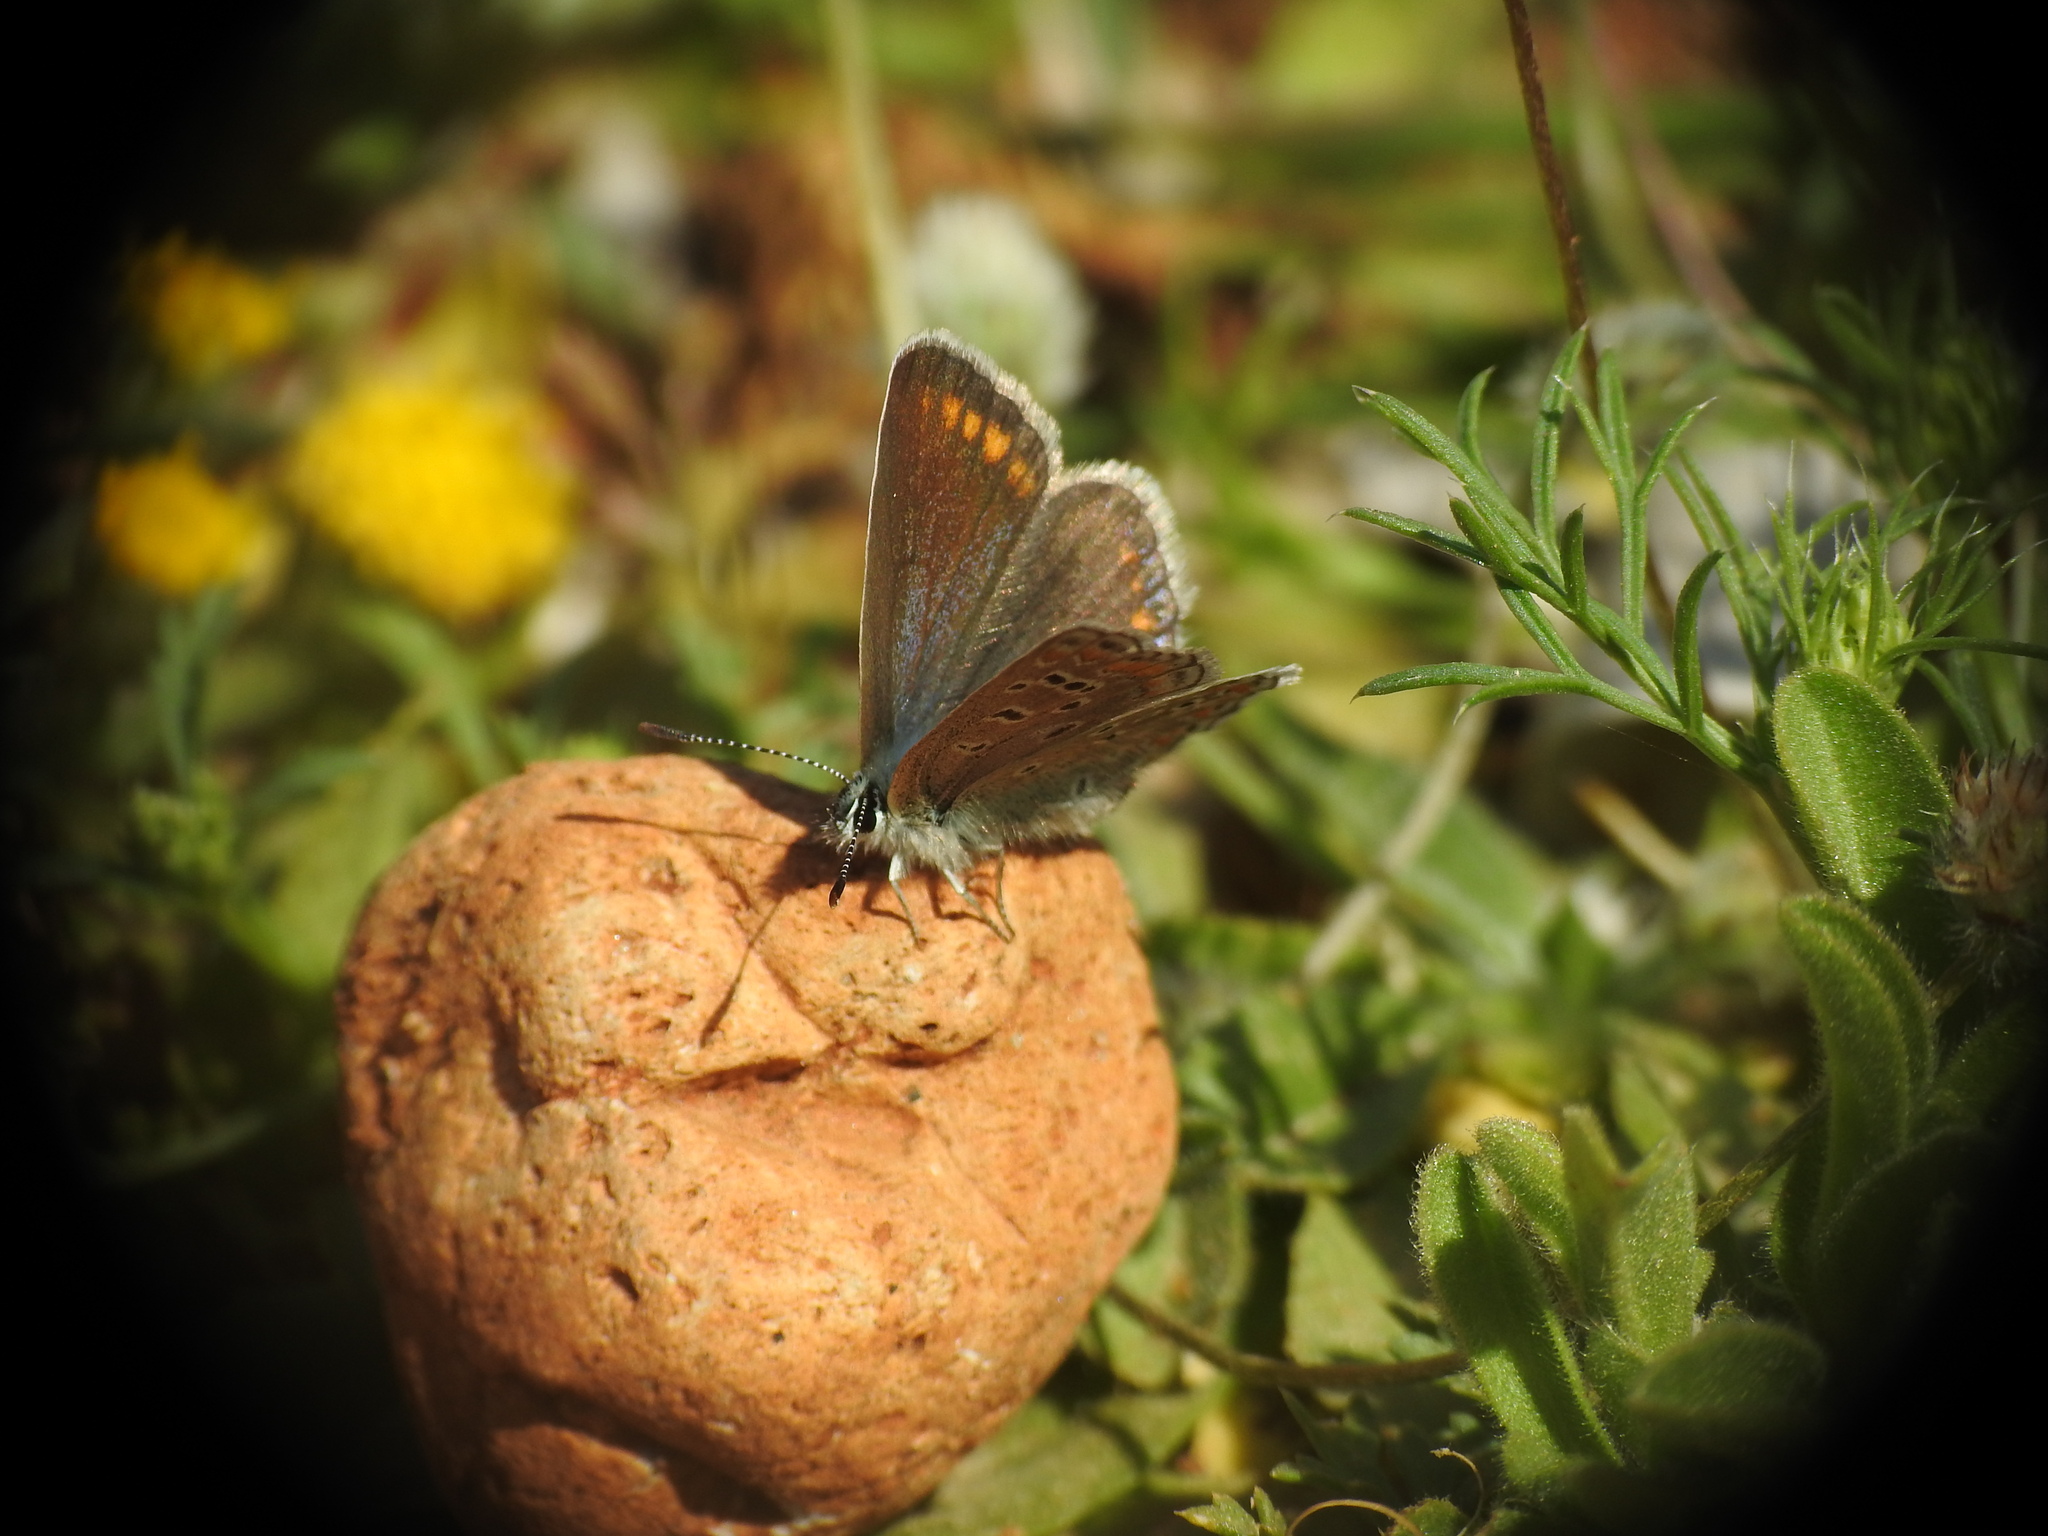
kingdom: Animalia
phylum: Arthropoda
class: Insecta
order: Lepidoptera
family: Lycaenidae
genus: Polyommatus
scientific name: Polyommatus icarus
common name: Common blue
